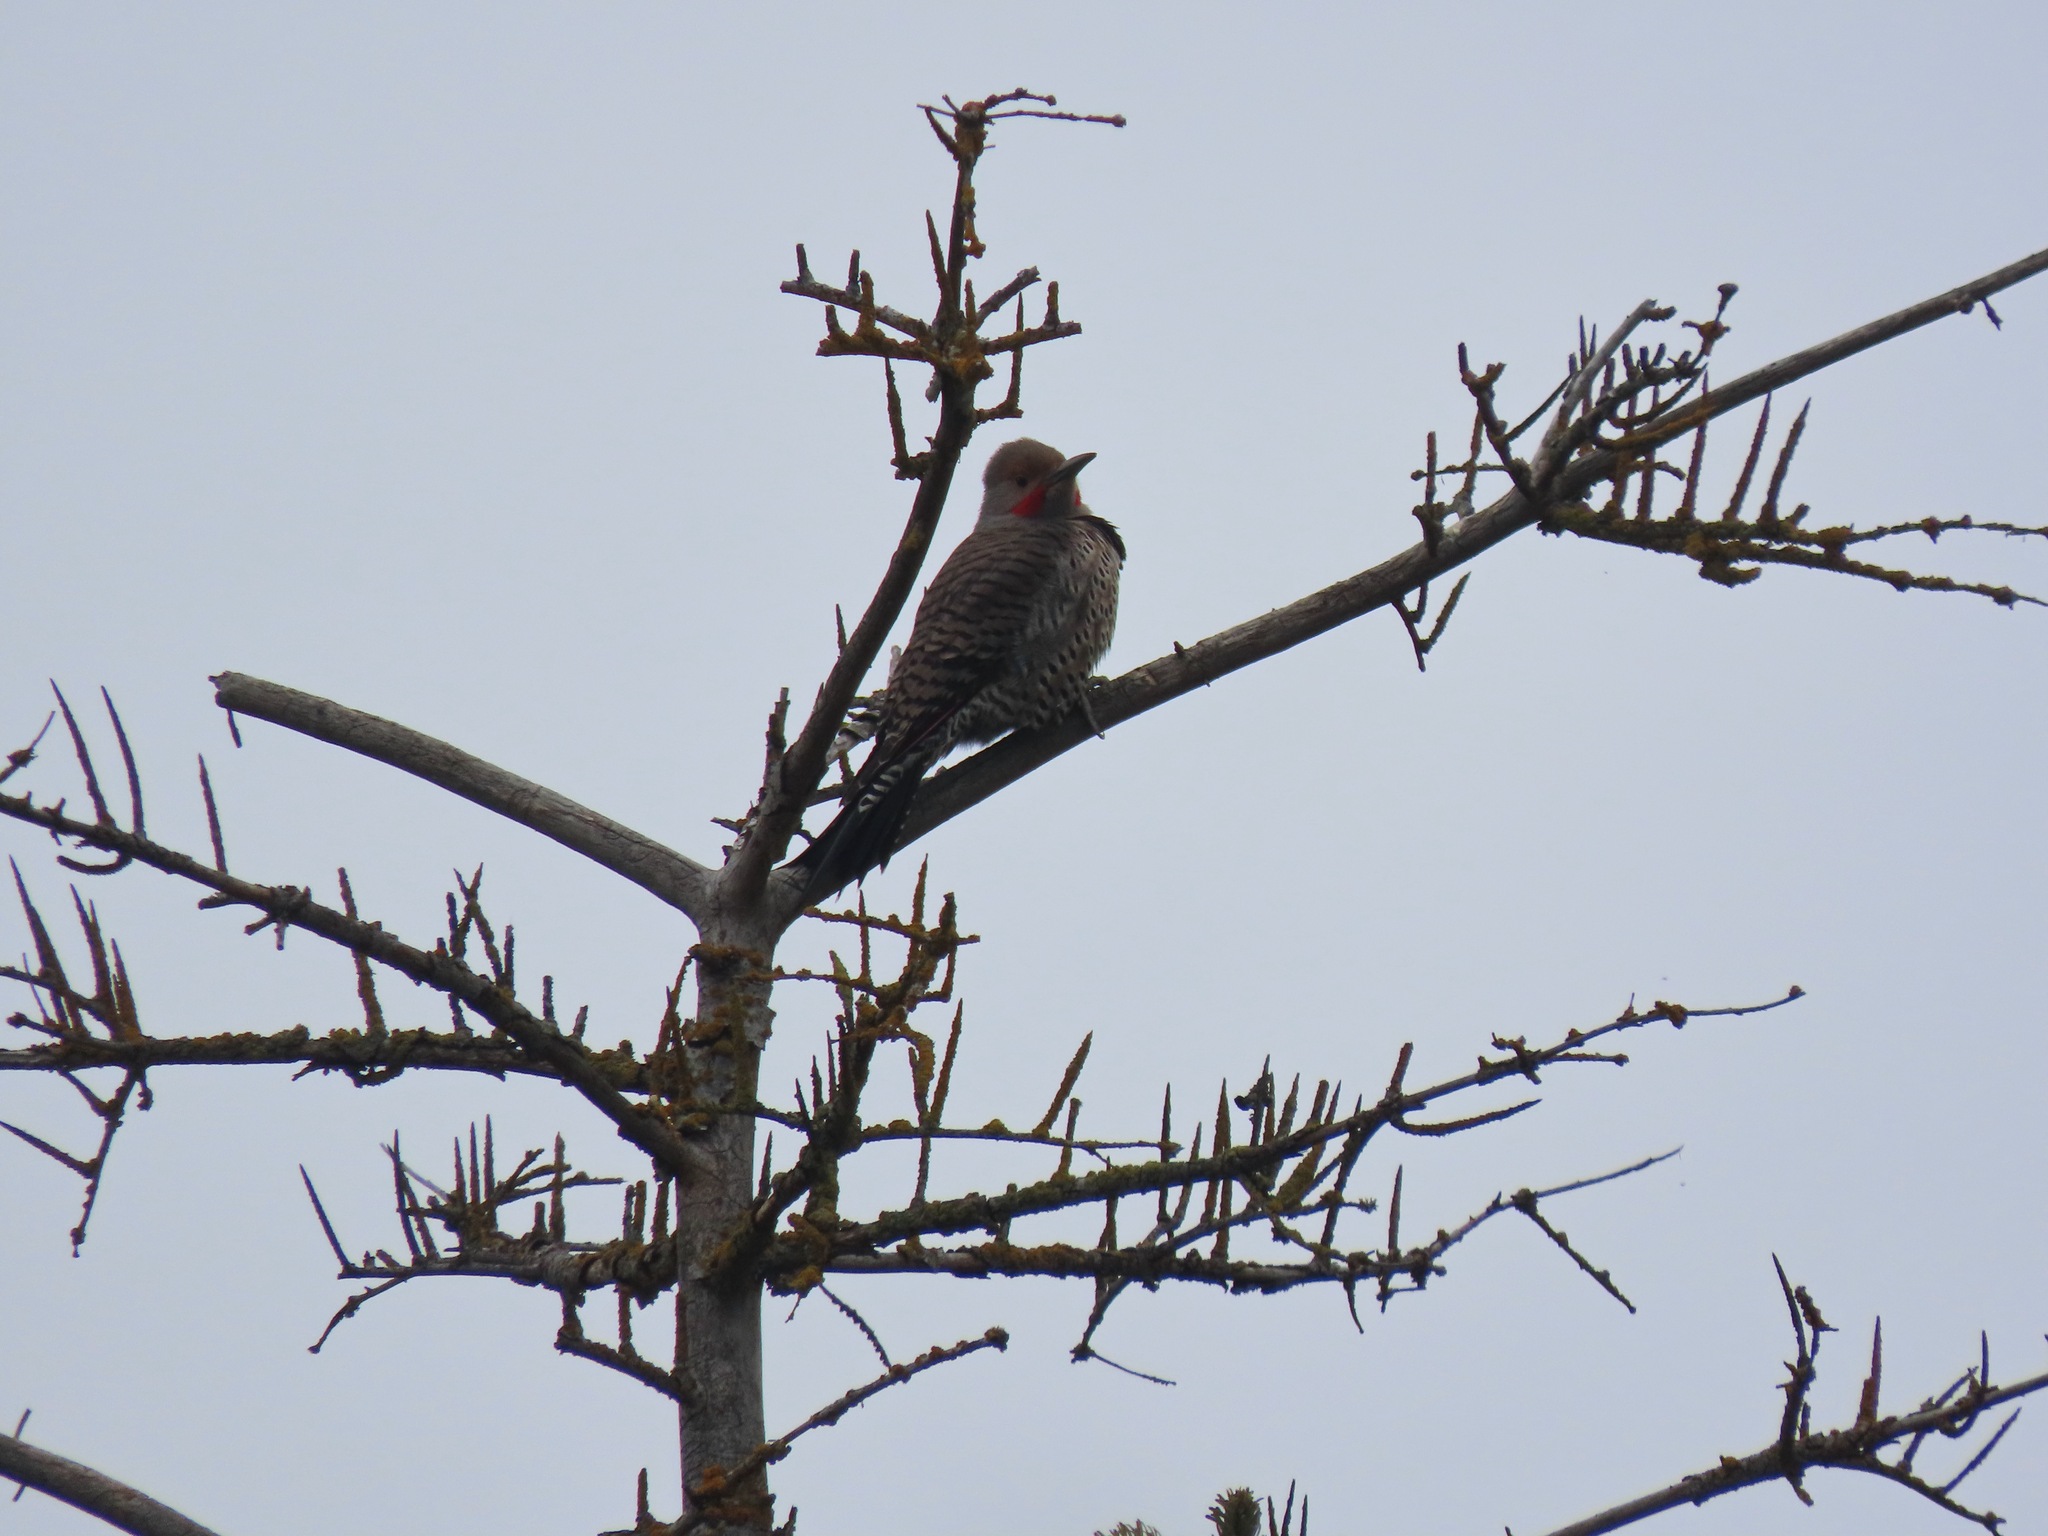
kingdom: Animalia
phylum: Chordata
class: Aves
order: Piciformes
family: Picidae
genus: Colaptes
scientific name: Colaptes auratus
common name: Northern flicker
